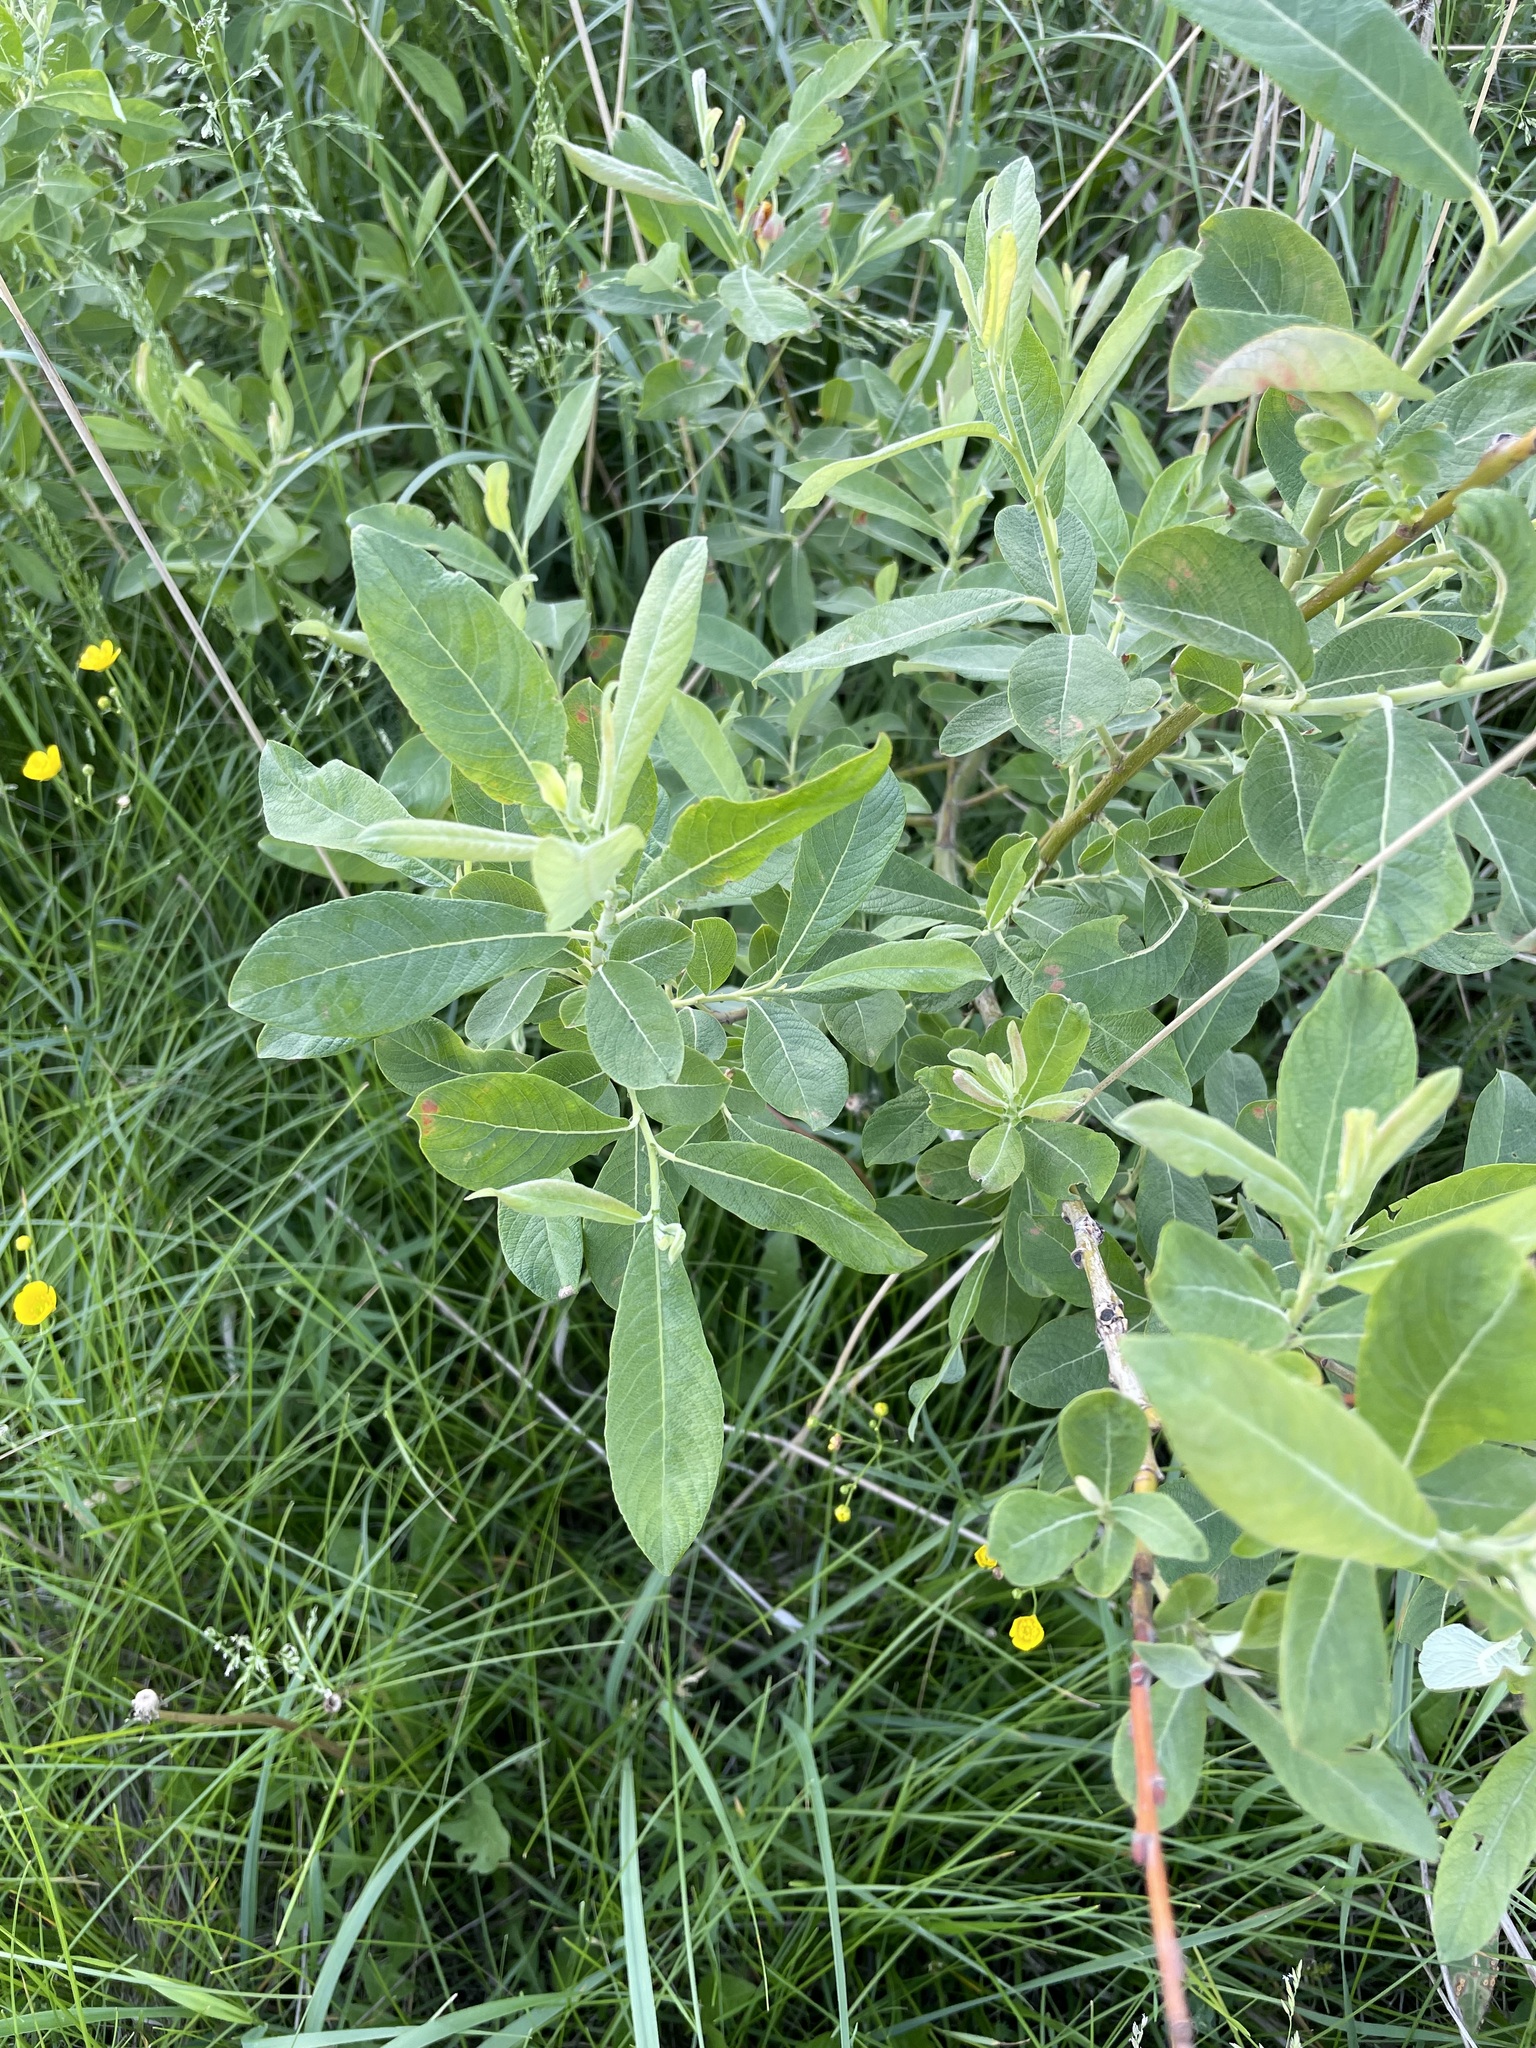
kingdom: Plantae
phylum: Tracheophyta
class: Magnoliopsida
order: Malpighiales
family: Salicaceae
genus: Salix
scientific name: Salix cinerea
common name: Common sallow
